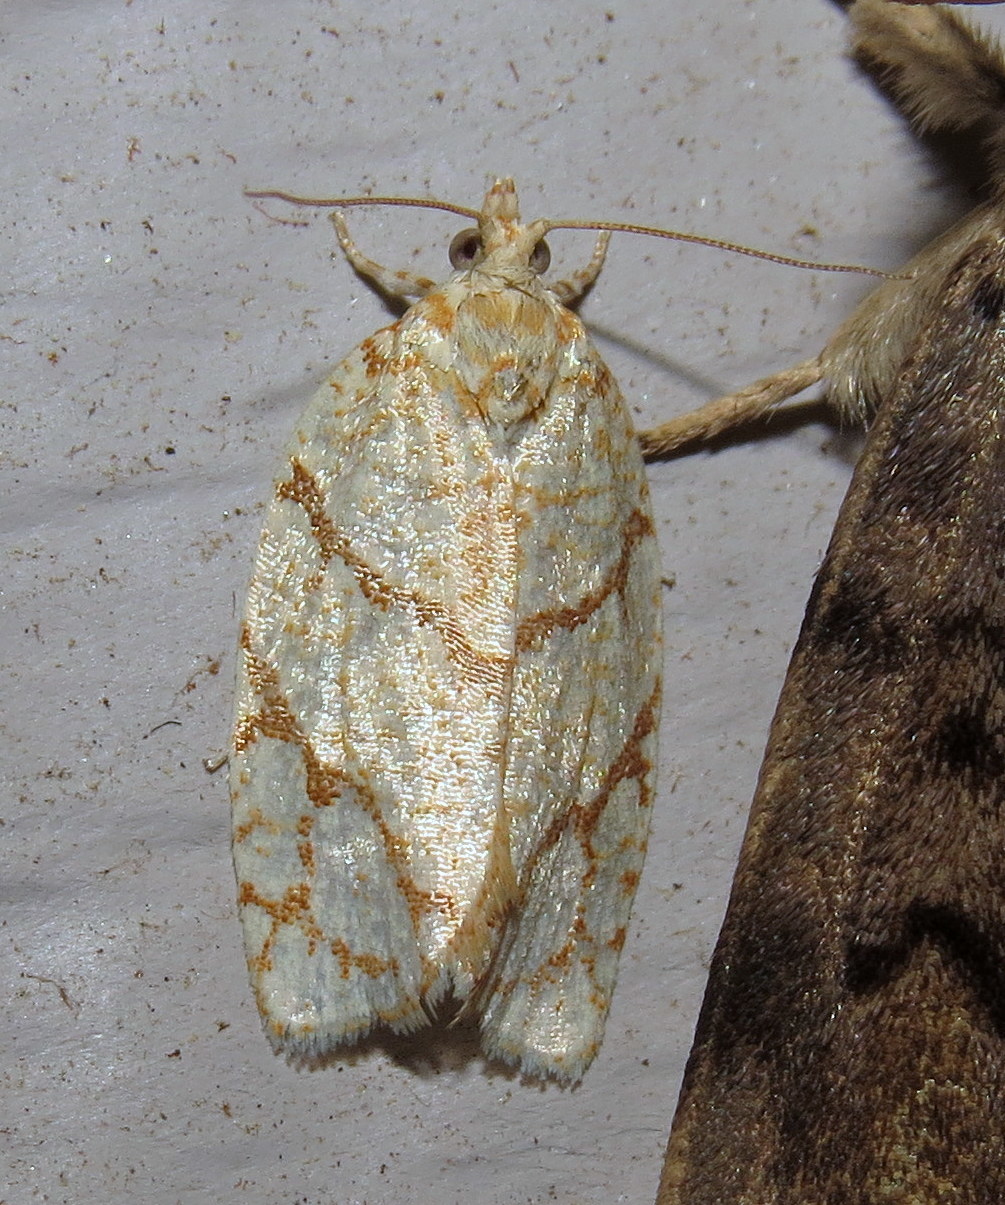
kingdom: Animalia
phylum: Arthropoda
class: Insecta
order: Lepidoptera
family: Tortricidae
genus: Argyrotaenia
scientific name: Argyrotaenia quercifoliana
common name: Yellow-winged oak leafroller moth
